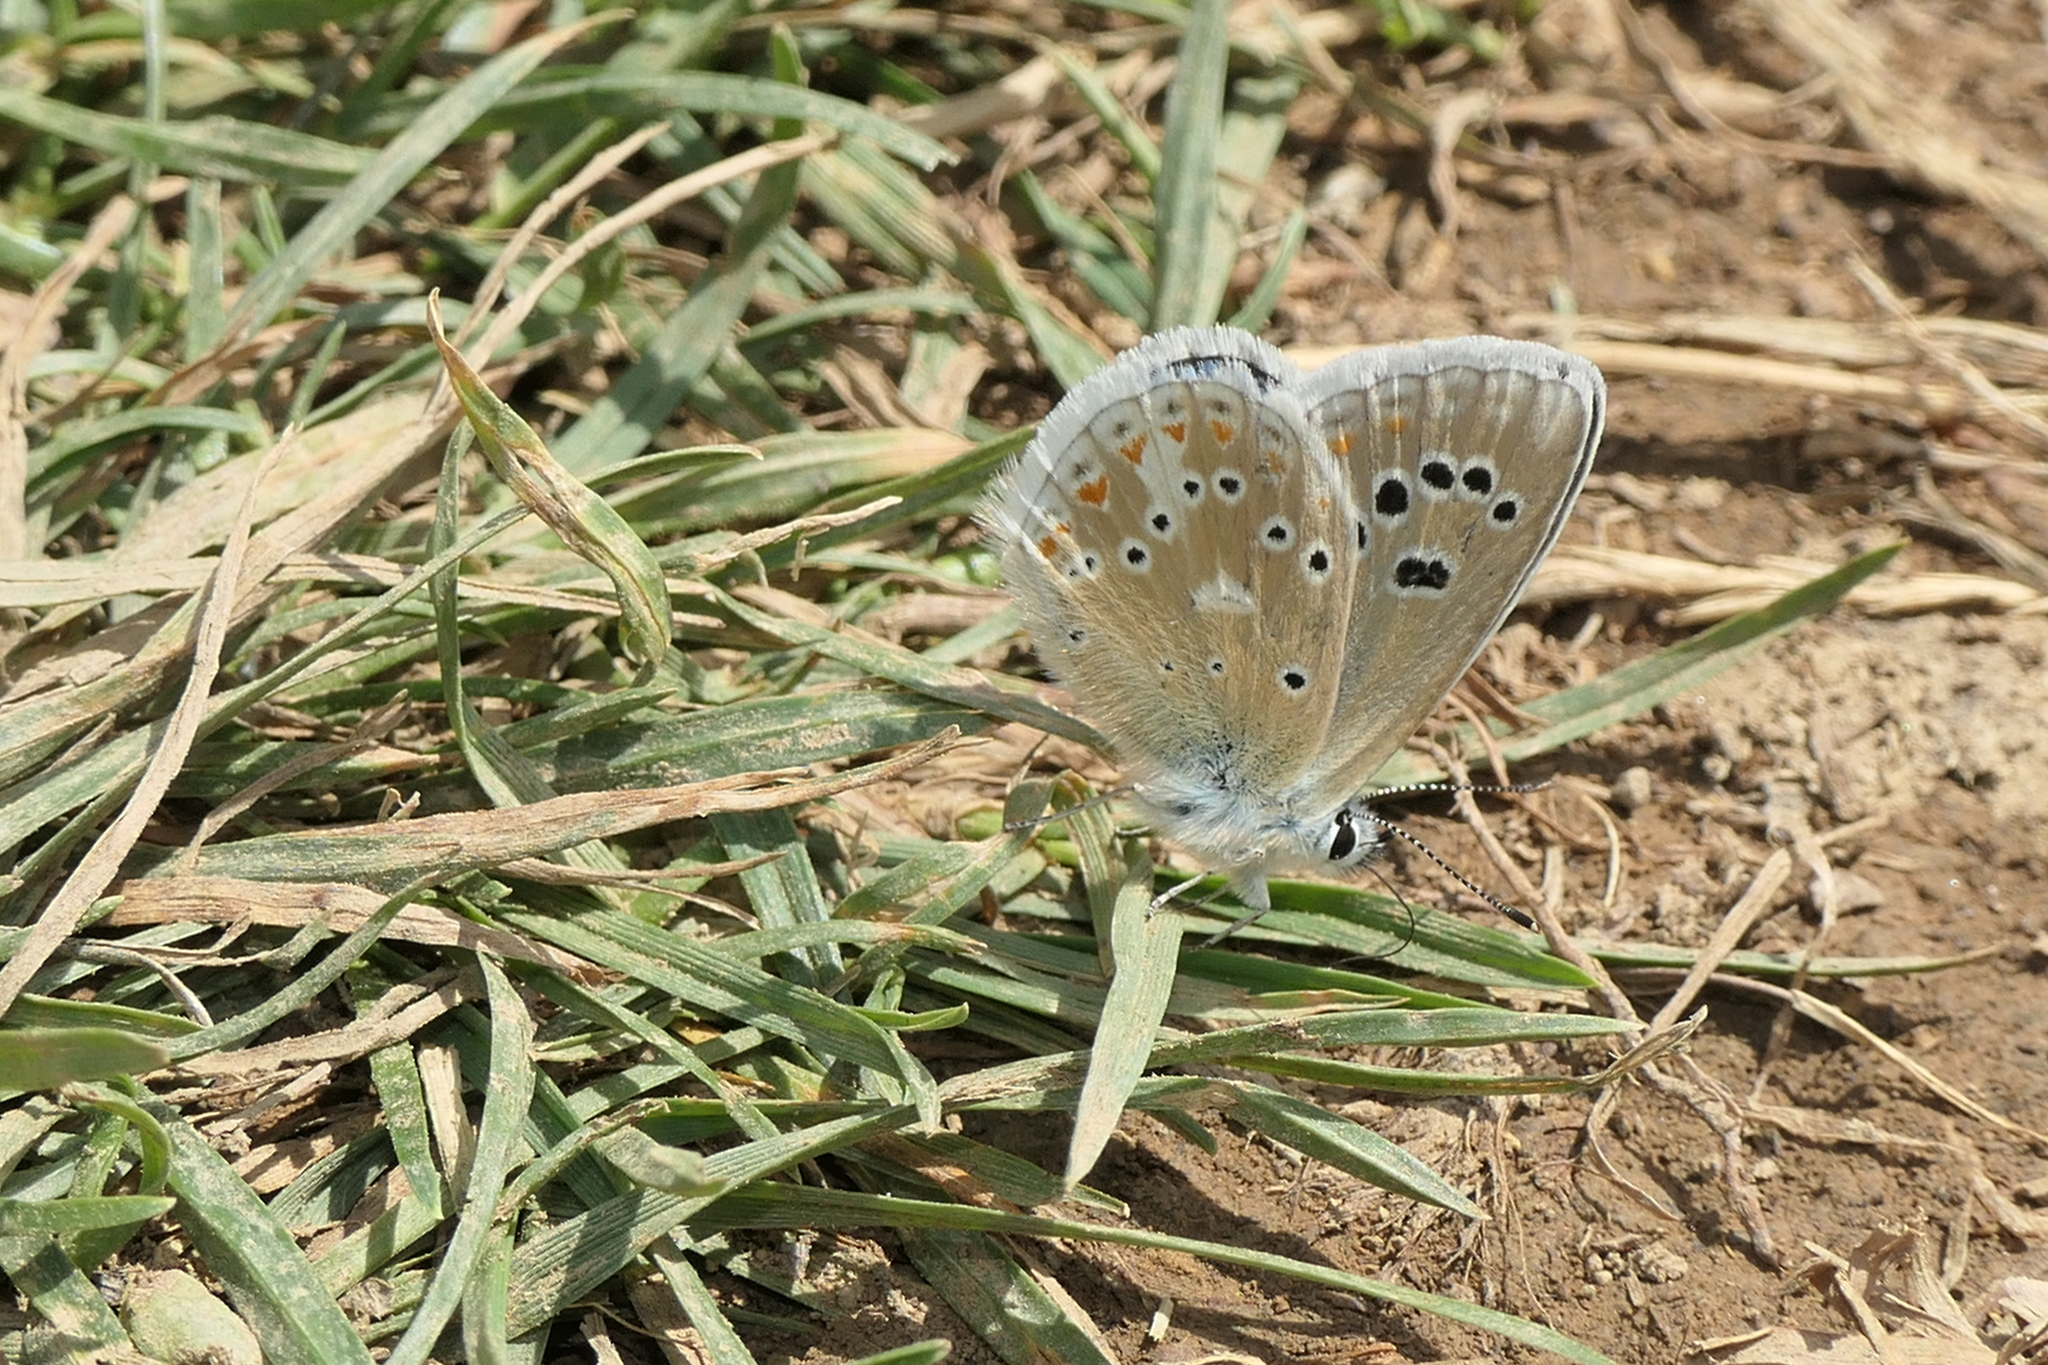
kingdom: Animalia
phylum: Arthropoda
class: Insecta
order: Lepidoptera
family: Lycaenidae
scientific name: Lycaenidae
